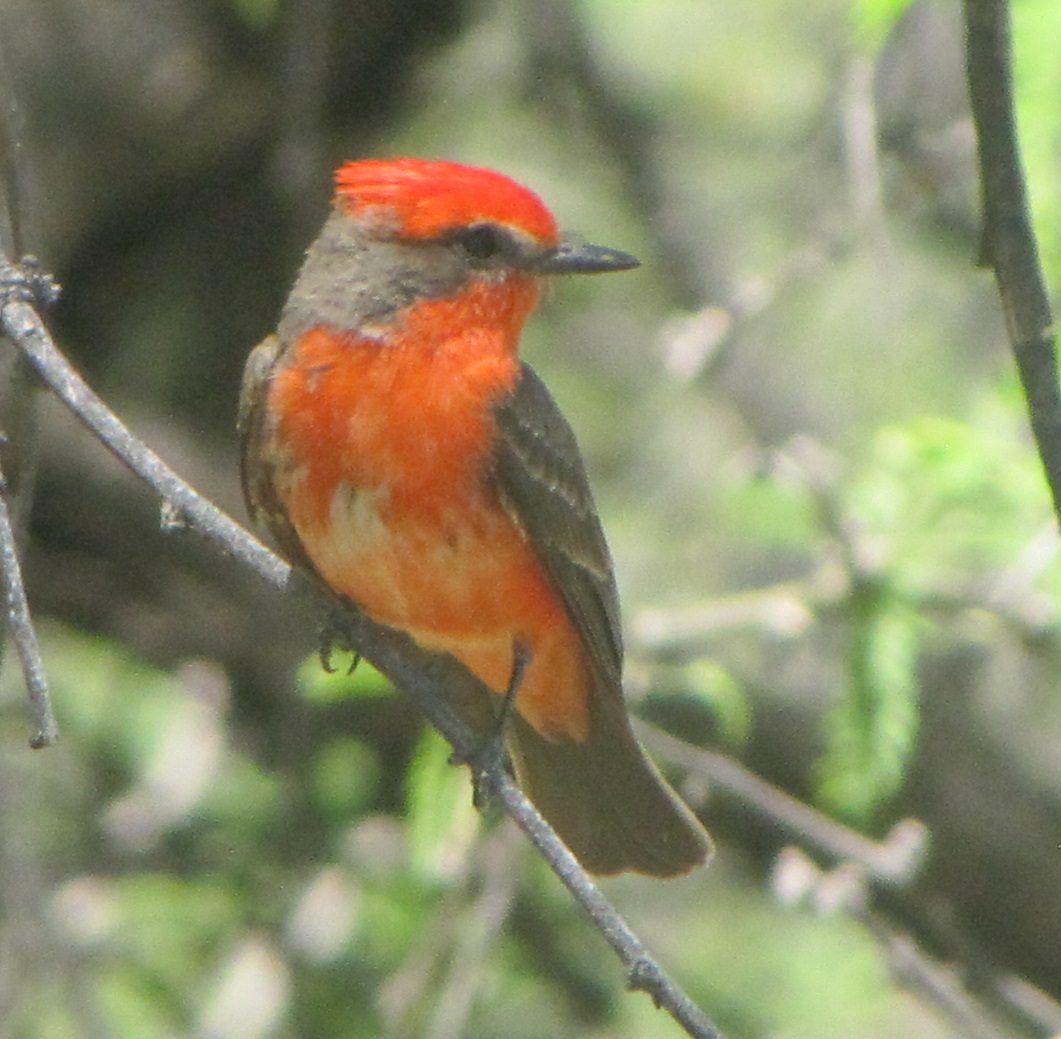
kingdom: Animalia
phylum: Chordata
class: Aves
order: Passeriformes
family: Tyrannidae
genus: Pyrocephalus
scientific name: Pyrocephalus rubinus
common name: Vermilion flycatcher
